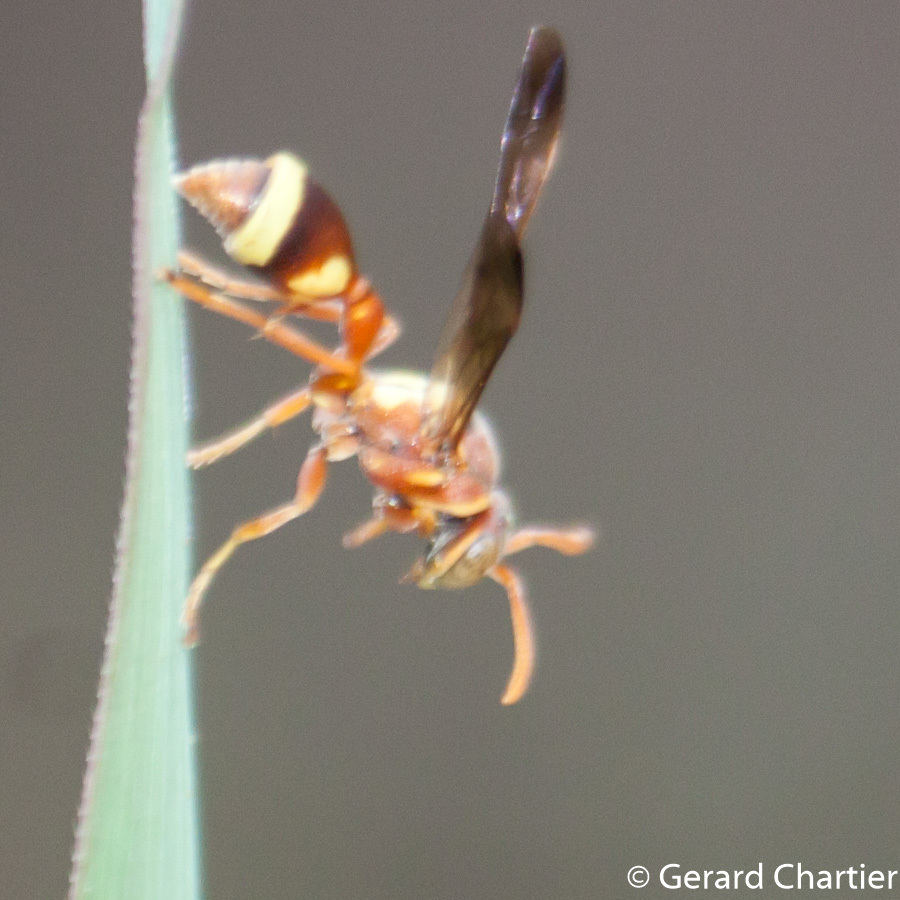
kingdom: Animalia
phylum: Arthropoda
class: Insecta
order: Hymenoptera
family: Vespidae
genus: Ropalidia
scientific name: Ropalidia fasciata
